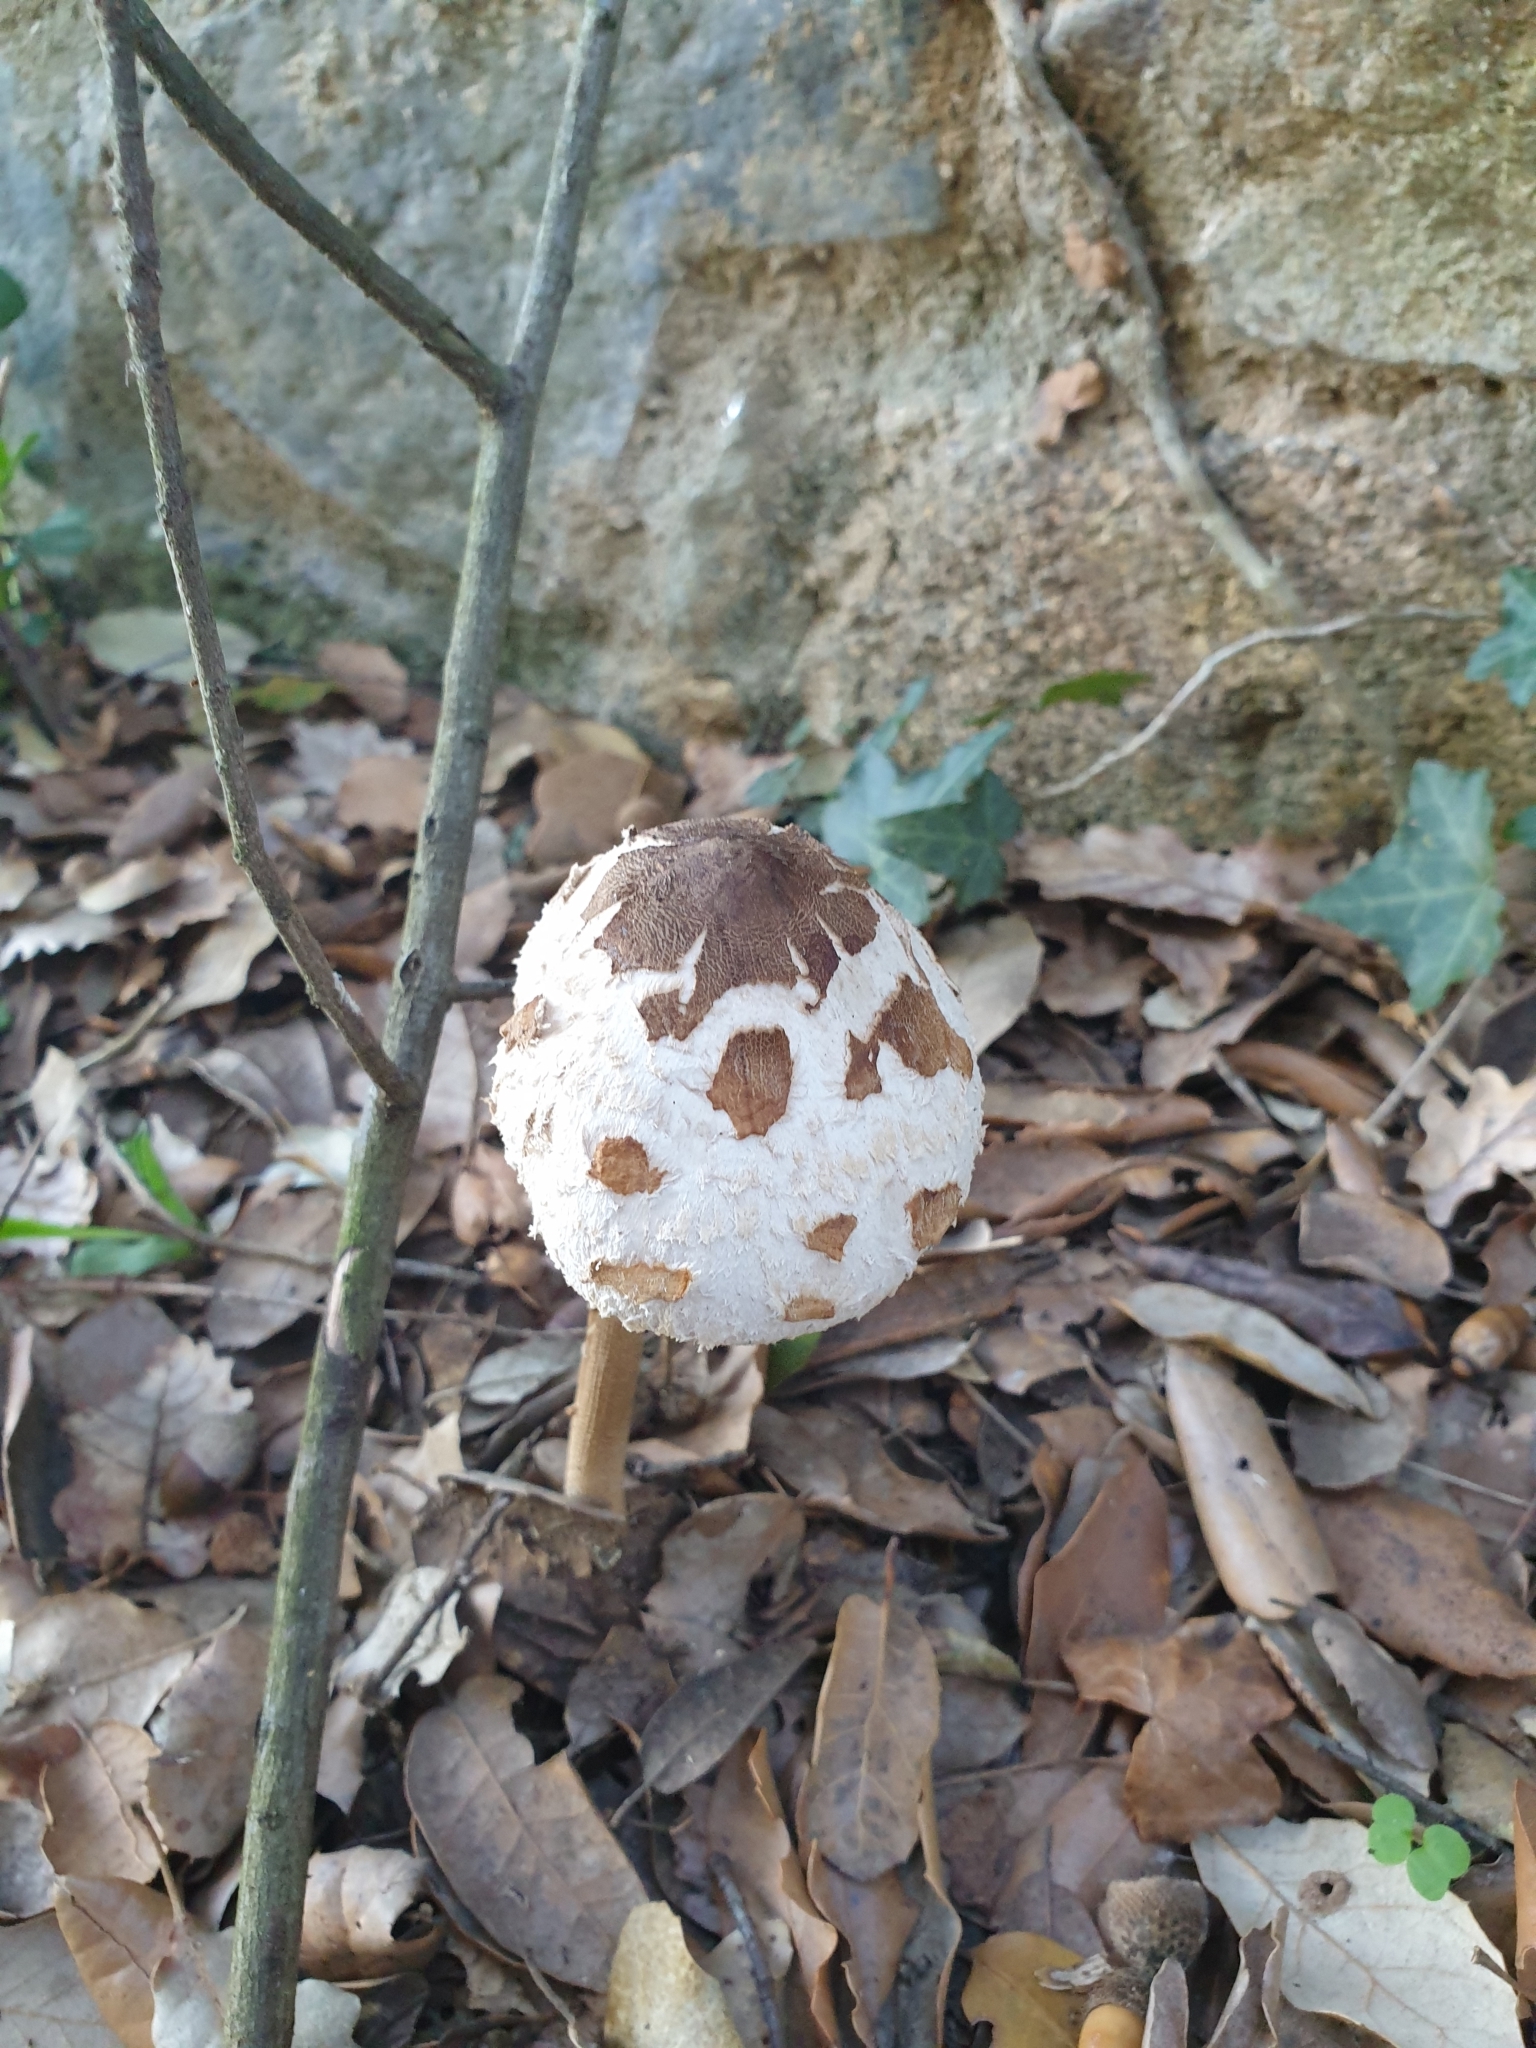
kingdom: Fungi
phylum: Basidiomycota
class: Agaricomycetes
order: Agaricales
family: Agaricaceae
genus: Macrolepiota
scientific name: Macrolepiota procera
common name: Parasol
